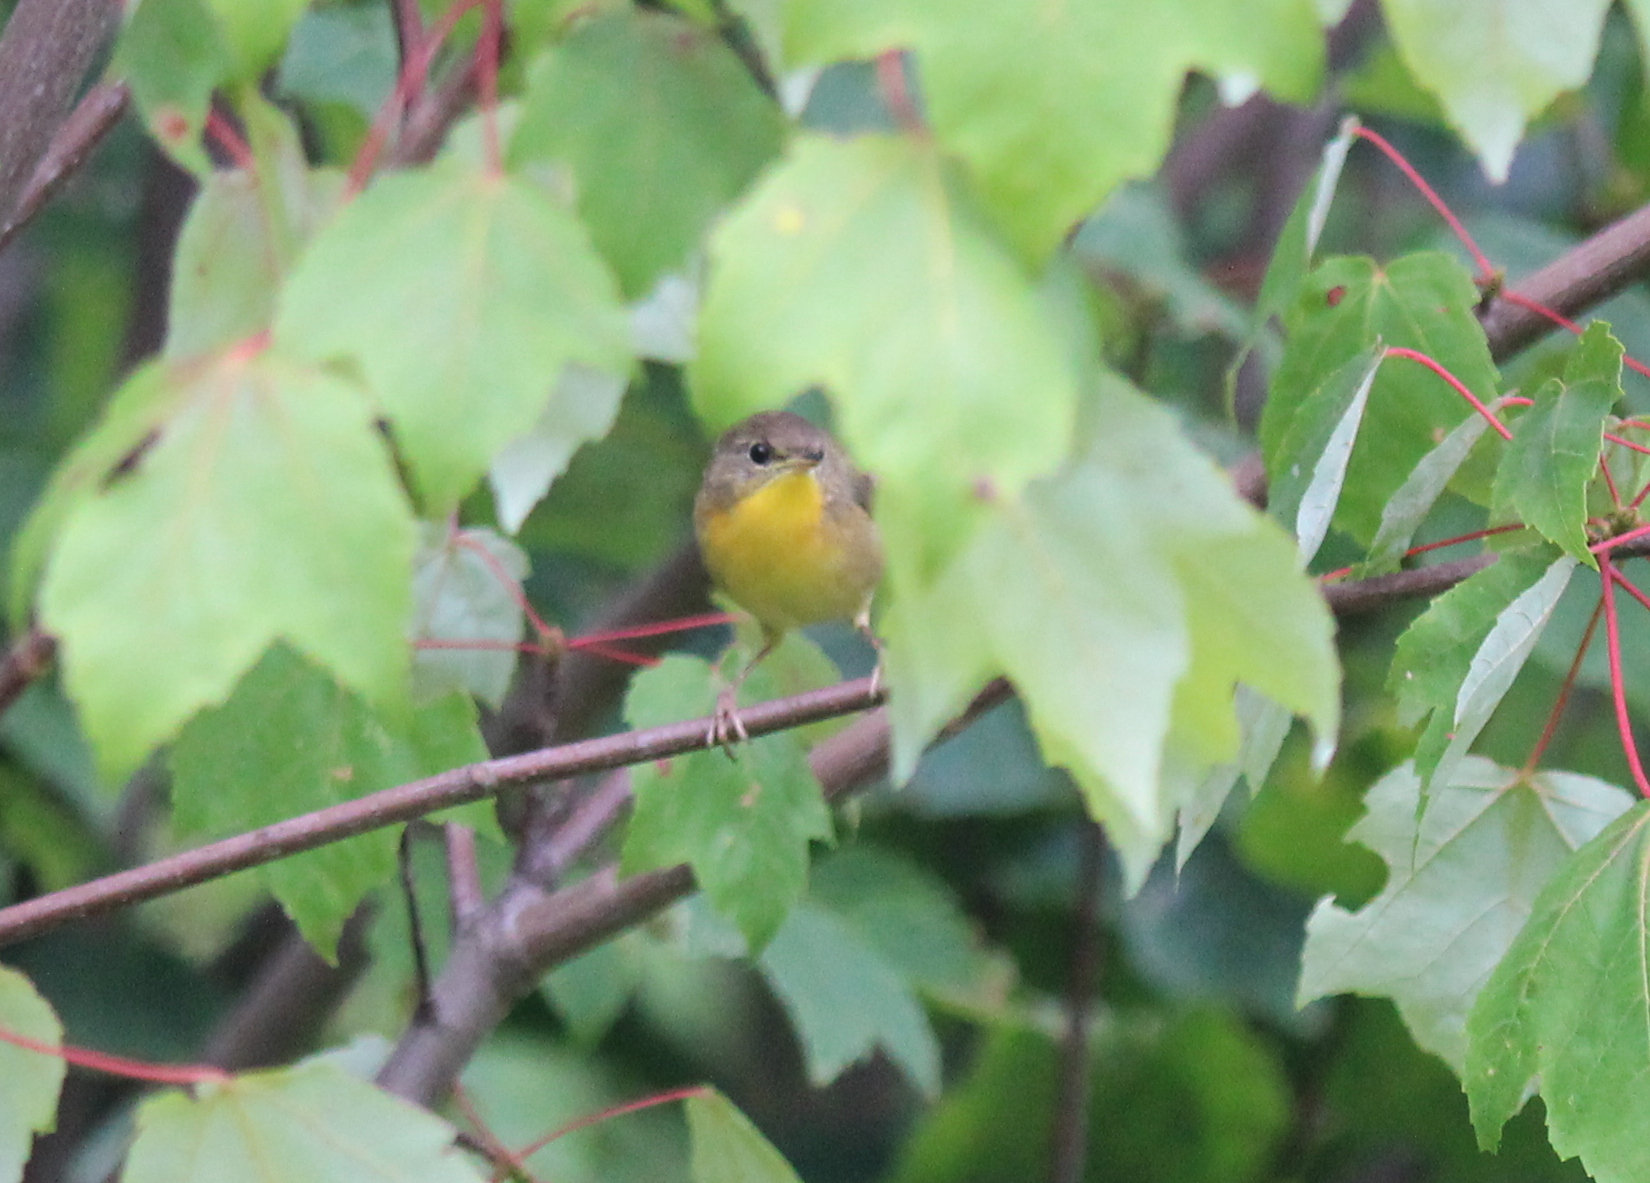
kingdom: Animalia
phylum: Chordata
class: Aves
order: Passeriformes
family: Parulidae
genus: Geothlypis
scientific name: Geothlypis trichas
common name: Common yellowthroat
